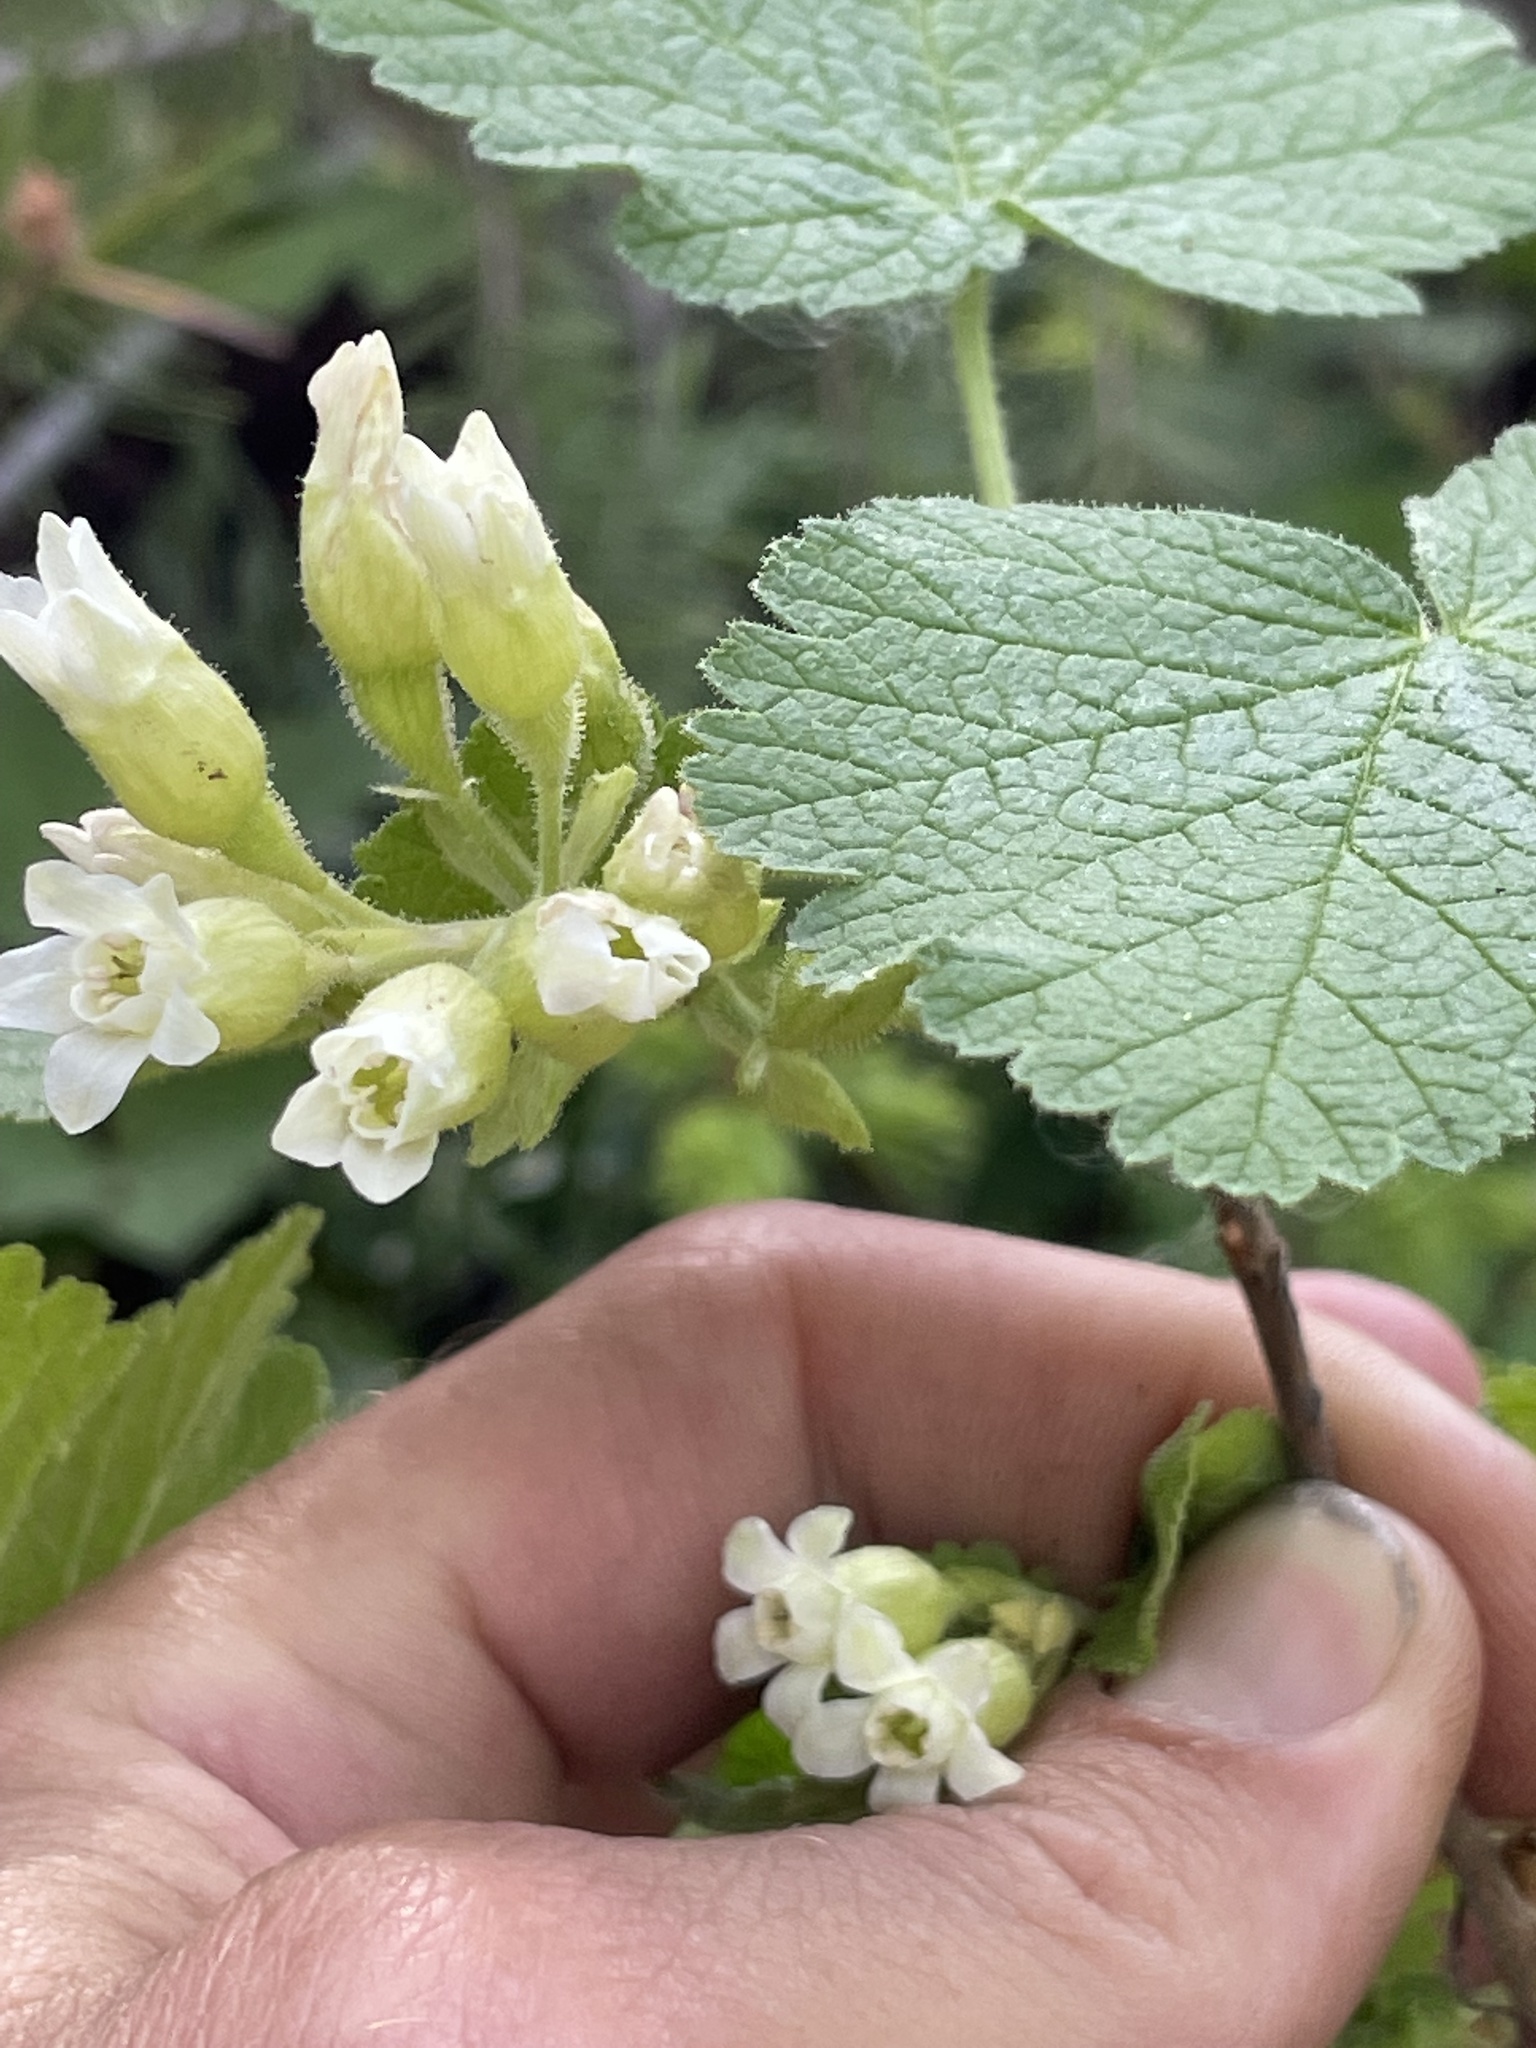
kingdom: Plantae
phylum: Tracheophyta
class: Magnoliopsida
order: Saxifragales
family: Grossulariaceae
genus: Ribes
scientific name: Ribes viscosissimum
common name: Sticky currant
